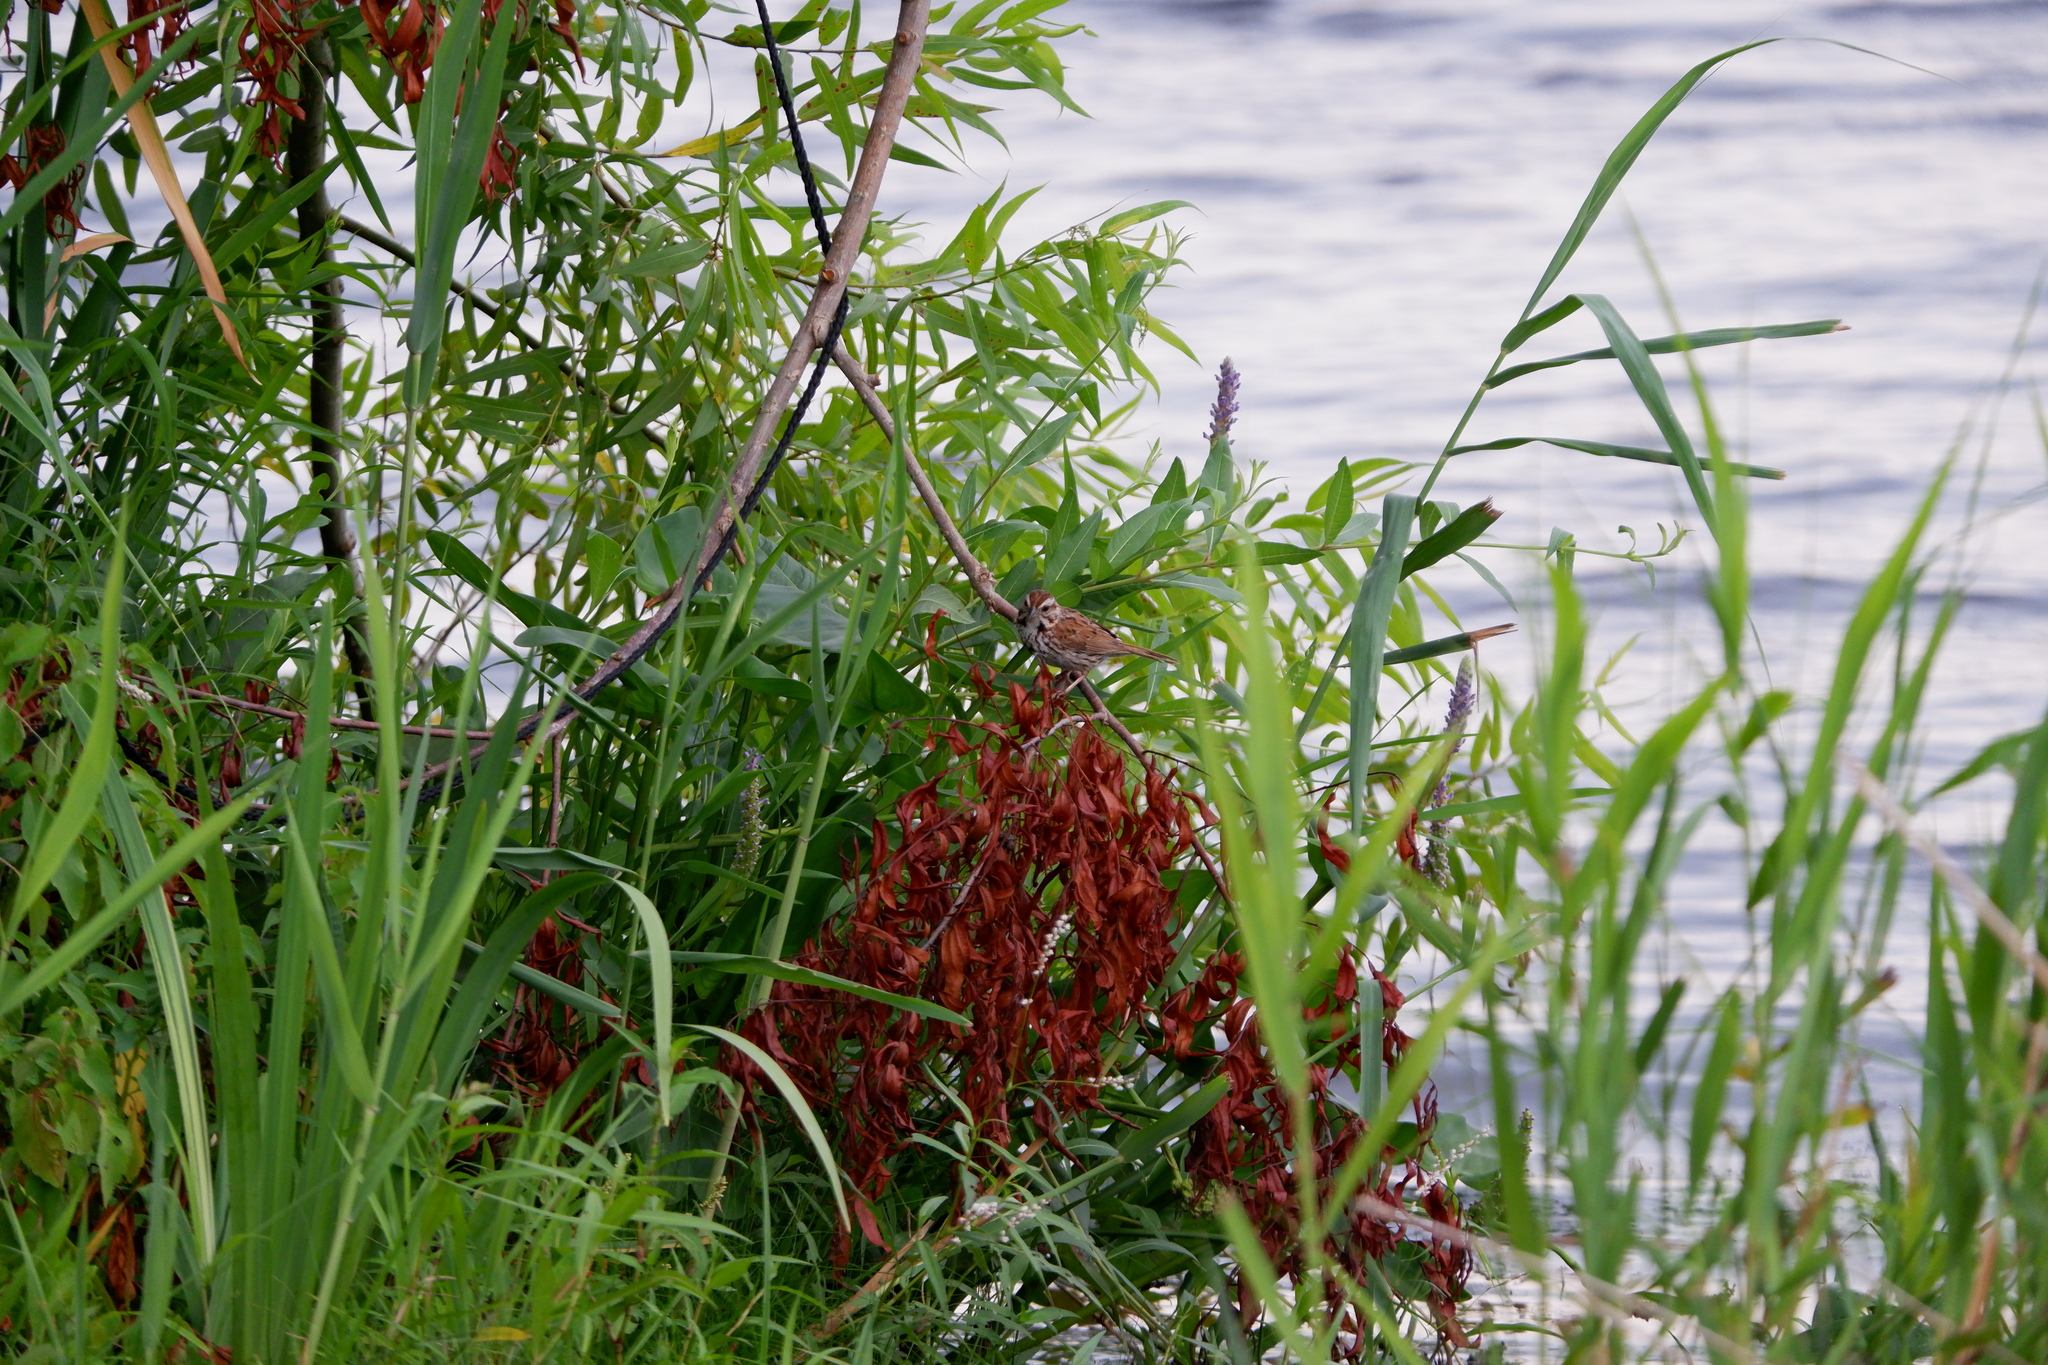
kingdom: Animalia
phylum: Chordata
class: Aves
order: Passeriformes
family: Passerellidae
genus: Melospiza
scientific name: Melospiza melodia
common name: Song sparrow
